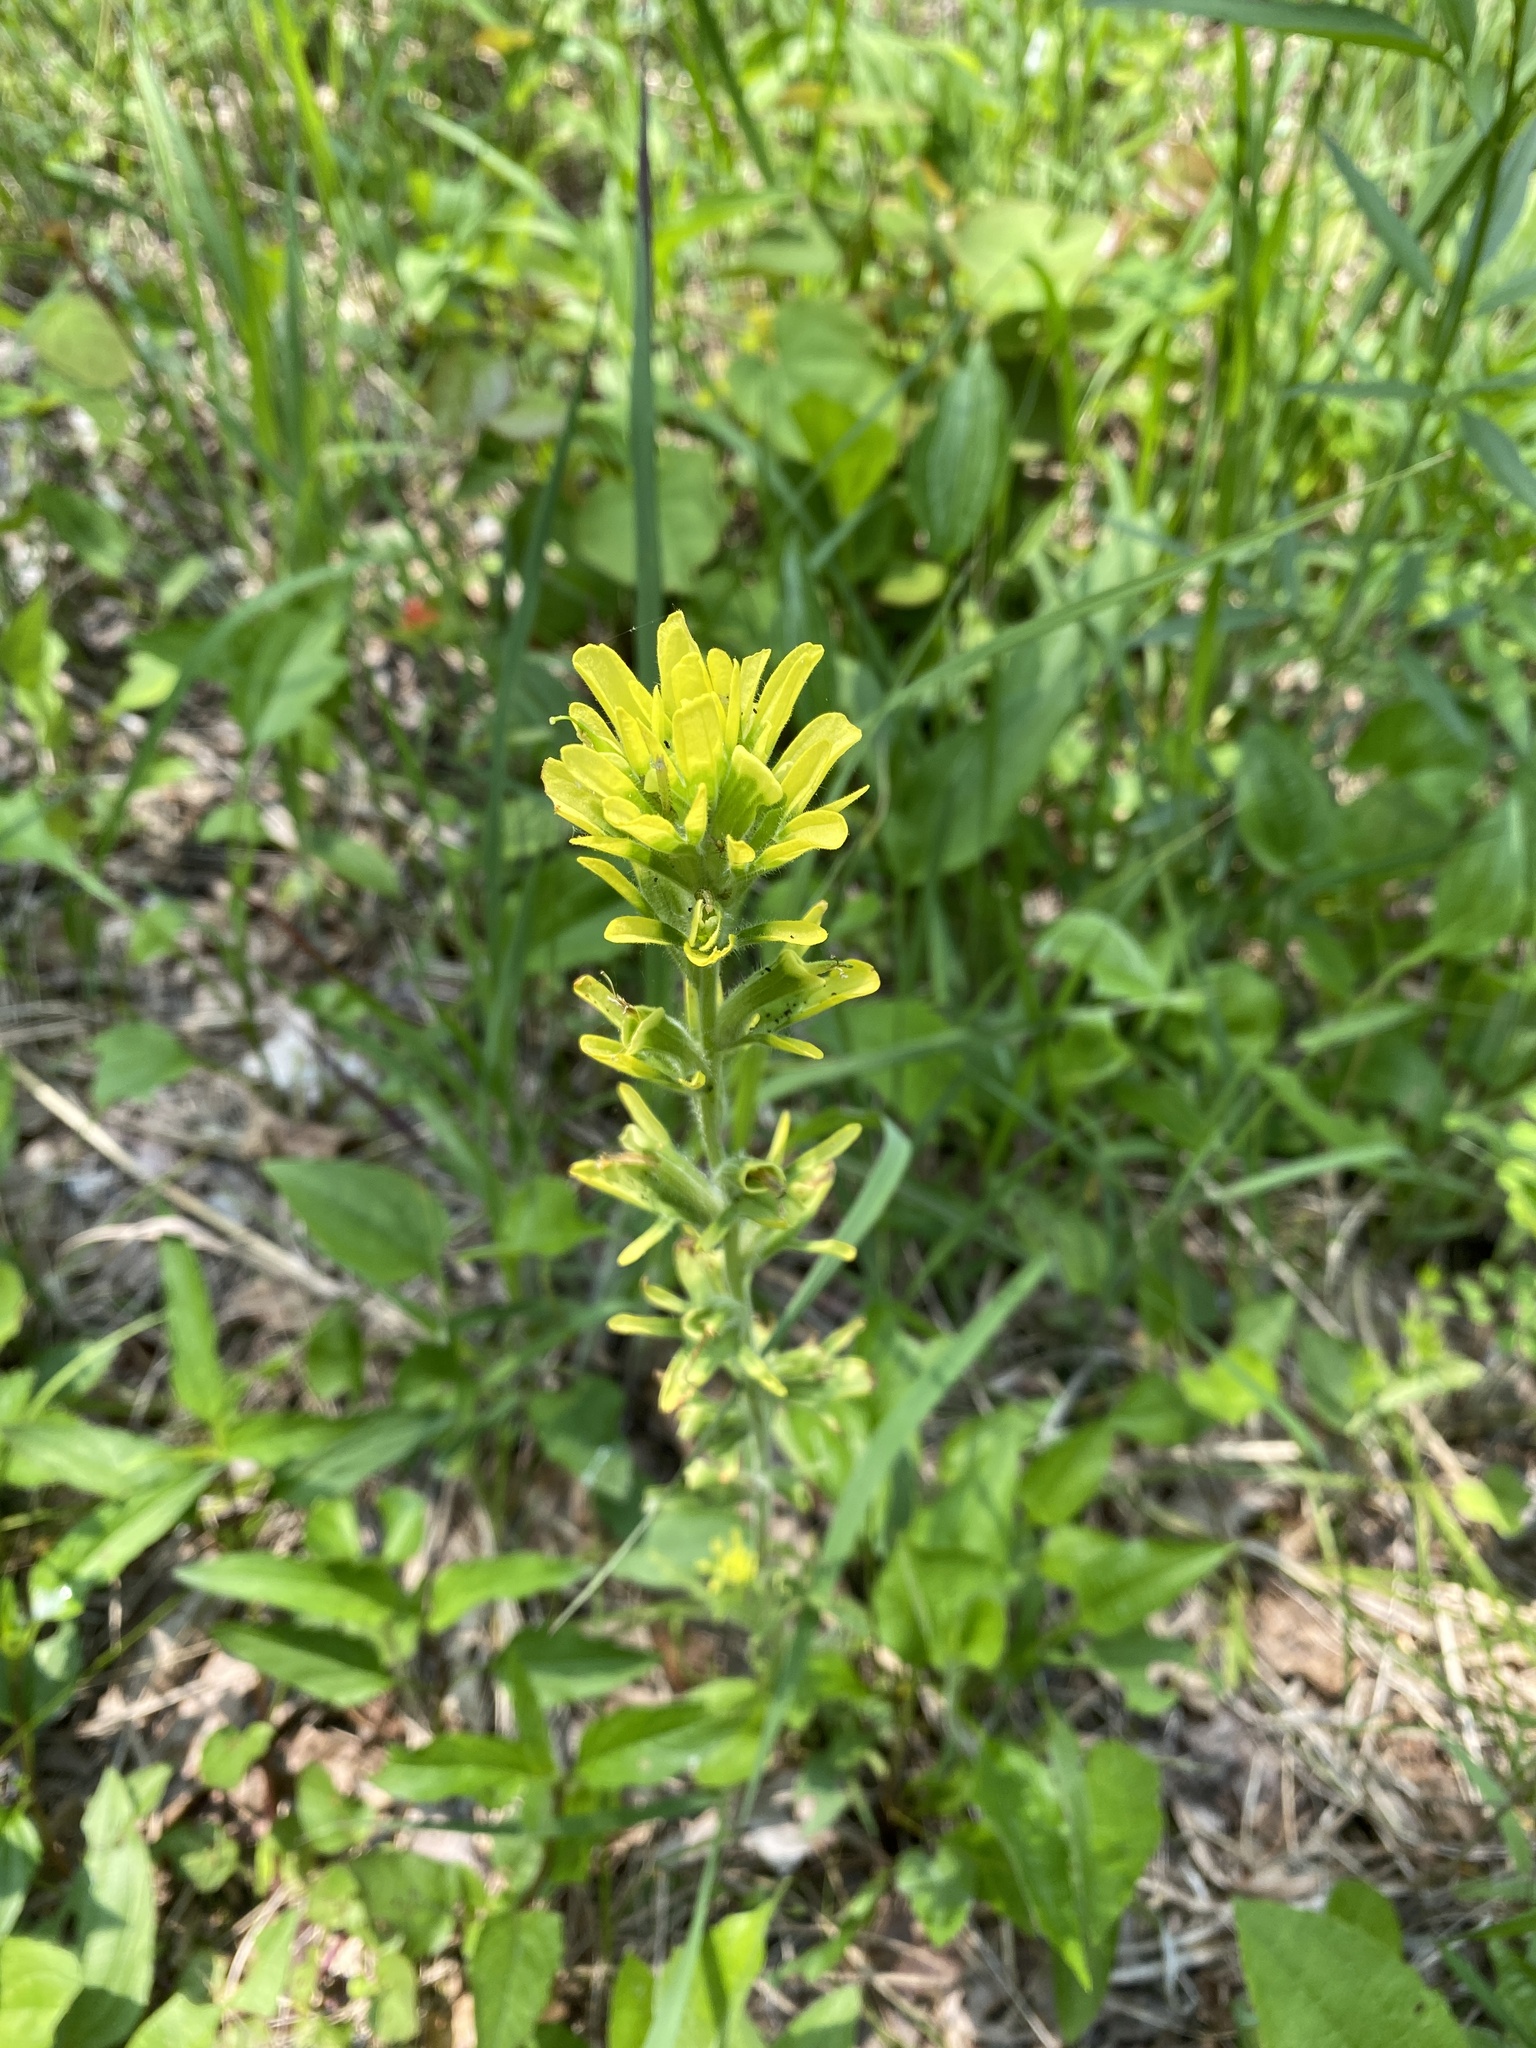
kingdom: Plantae
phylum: Tracheophyta
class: Magnoliopsida
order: Lamiales
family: Orobanchaceae
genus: Castilleja
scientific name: Castilleja coccinea
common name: Scarlet paintbrush
